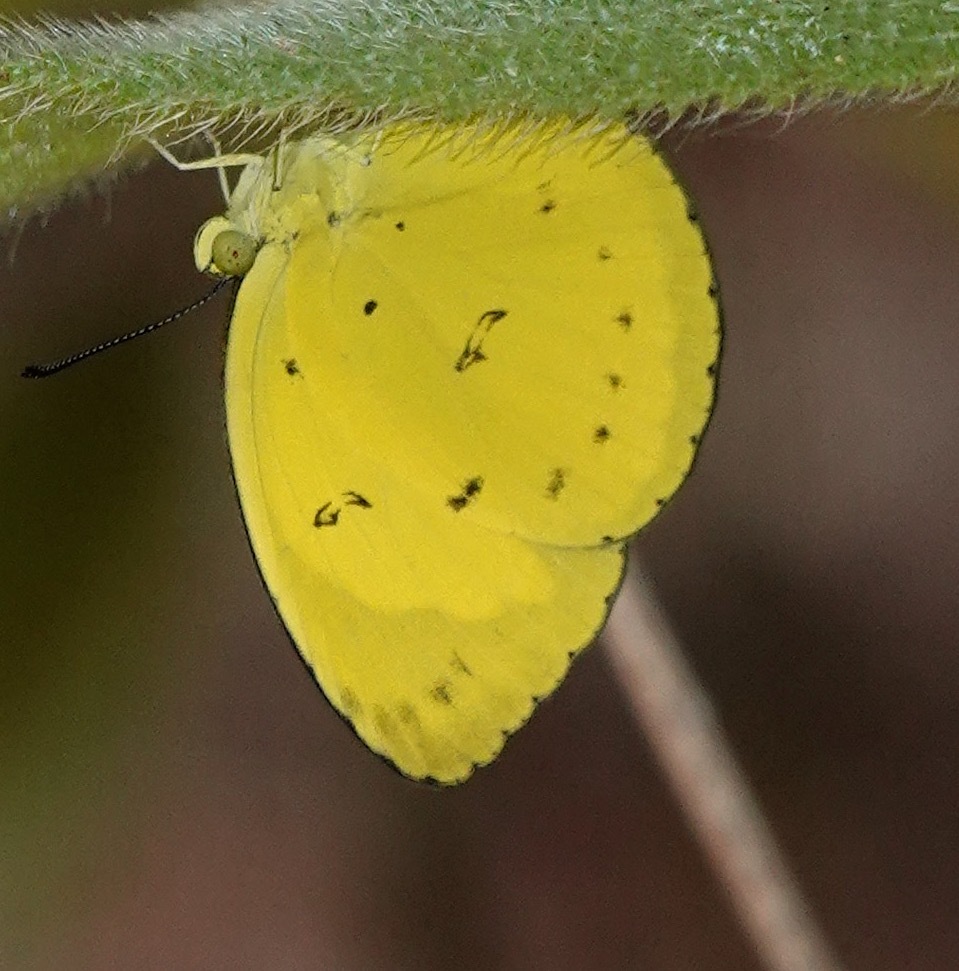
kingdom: Animalia
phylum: Arthropoda
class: Insecta
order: Lepidoptera
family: Pieridae
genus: Eurema
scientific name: Eurema nicevillei
